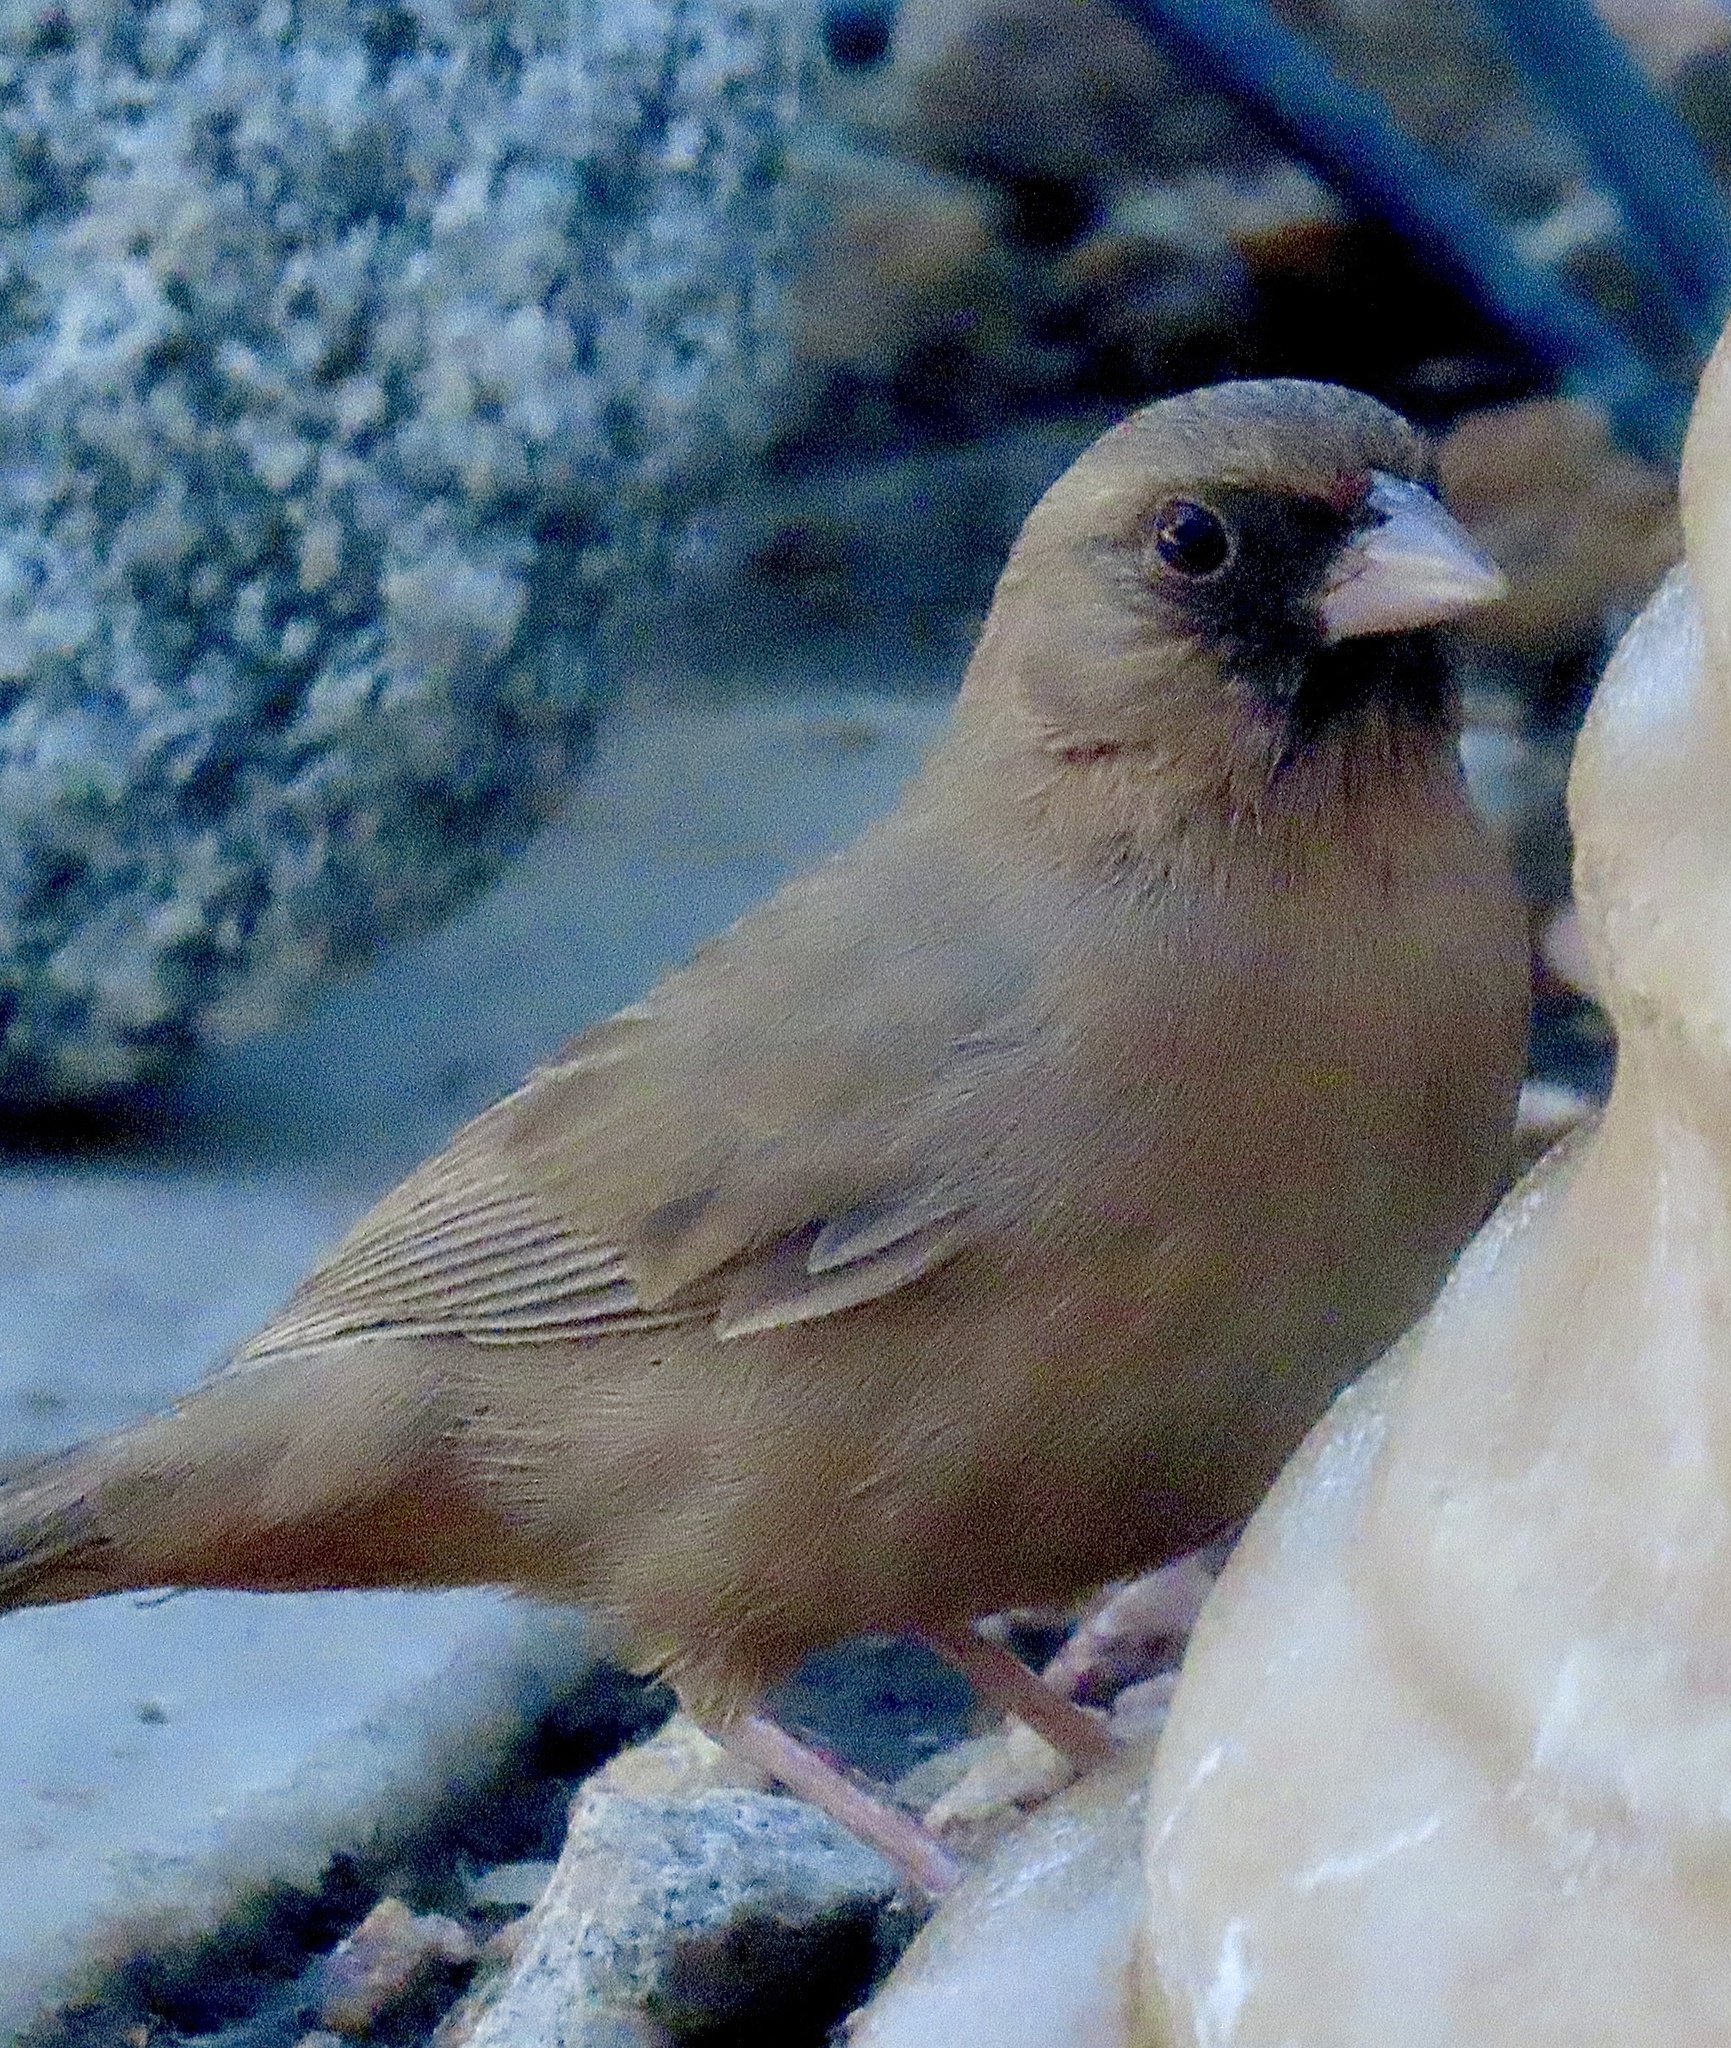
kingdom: Animalia
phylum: Chordata
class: Aves
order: Passeriformes
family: Passerellidae
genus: Melozone
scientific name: Melozone aberti
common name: Abert's towhee
